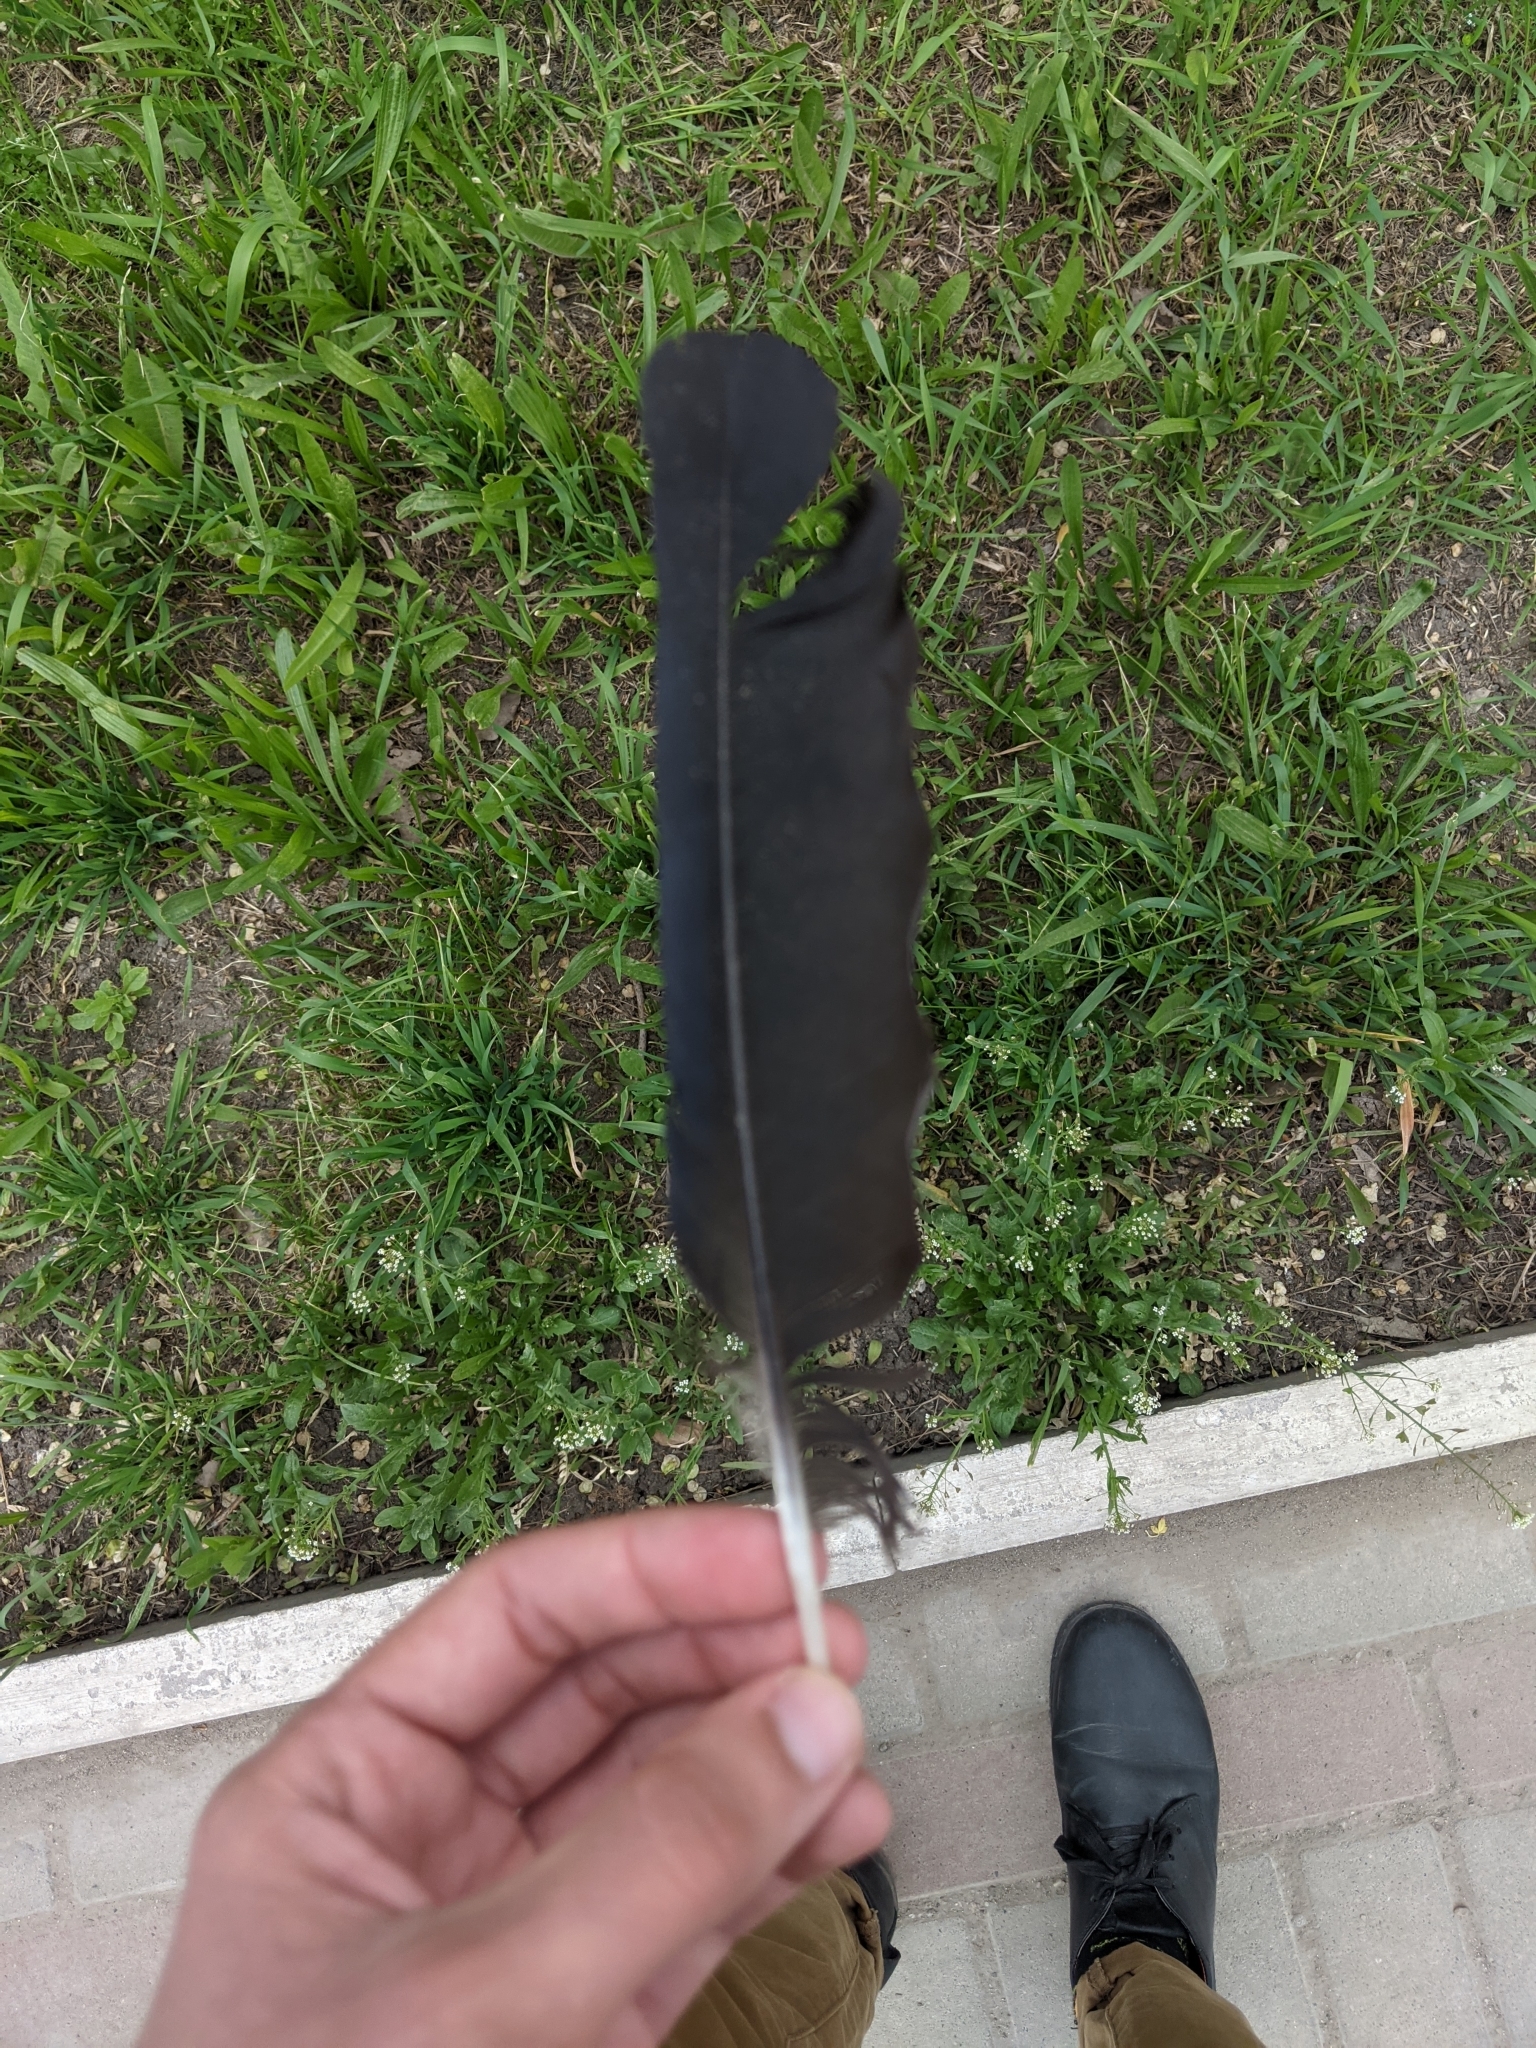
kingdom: Animalia
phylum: Chordata
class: Aves
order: Passeriformes
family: Corvidae
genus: Corvus
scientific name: Corvus frugilegus
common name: Rook
